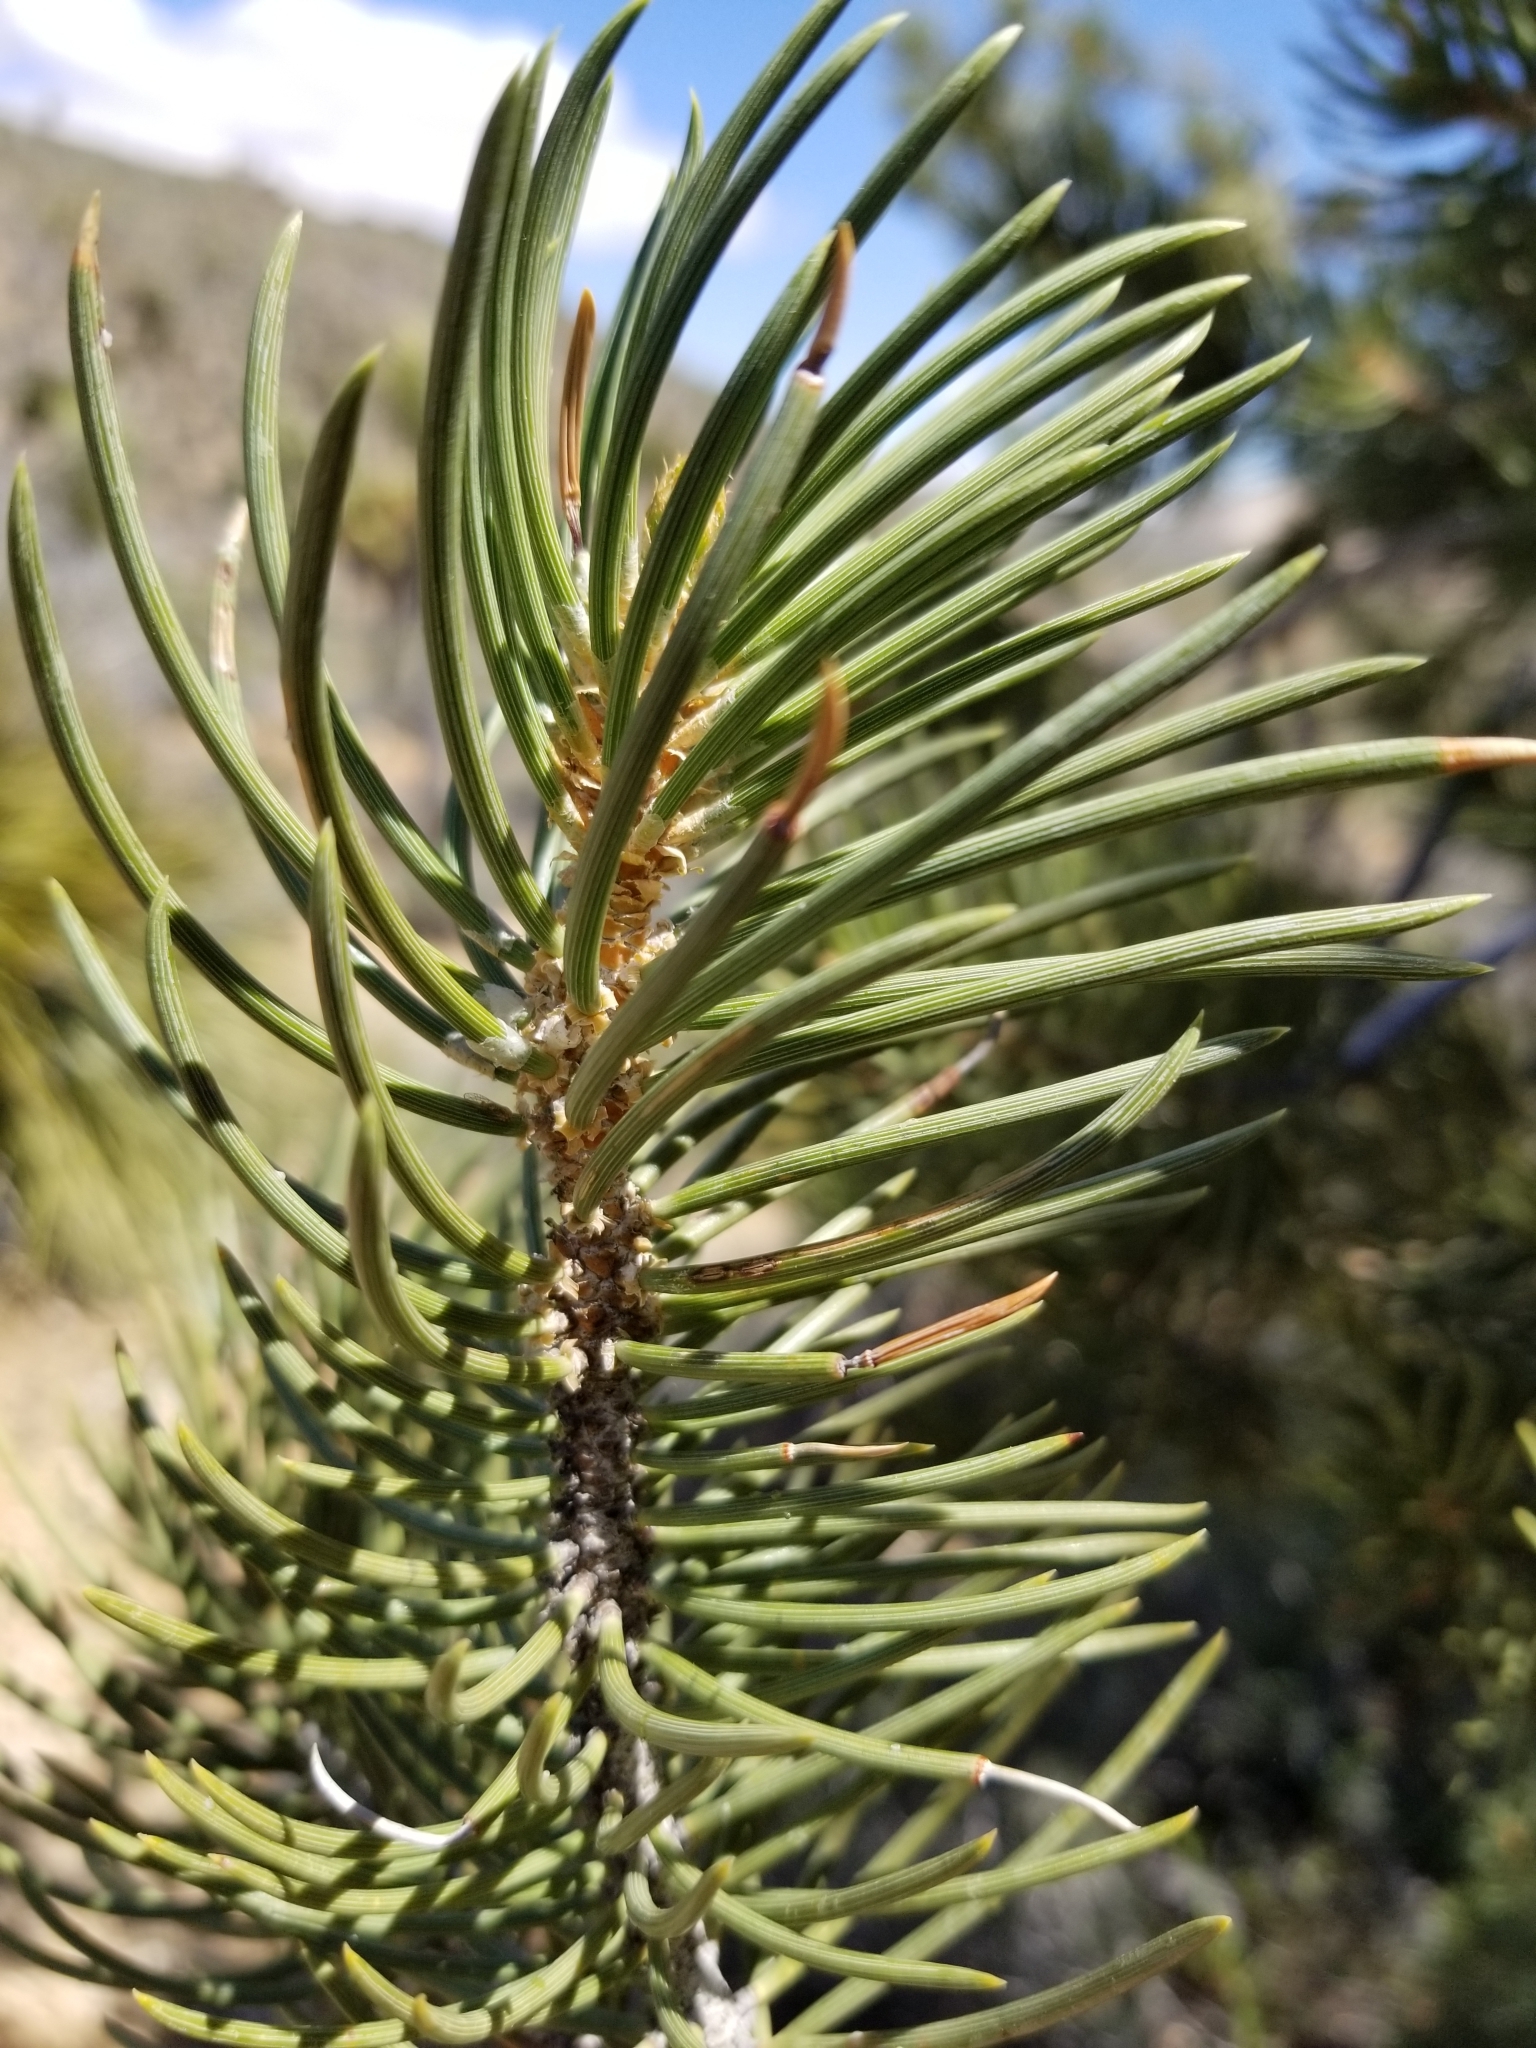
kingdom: Plantae
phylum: Tracheophyta
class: Pinopsida
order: Pinales
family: Pinaceae
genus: Pinus
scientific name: Pinus monophylla
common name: One-leaved nut pine
